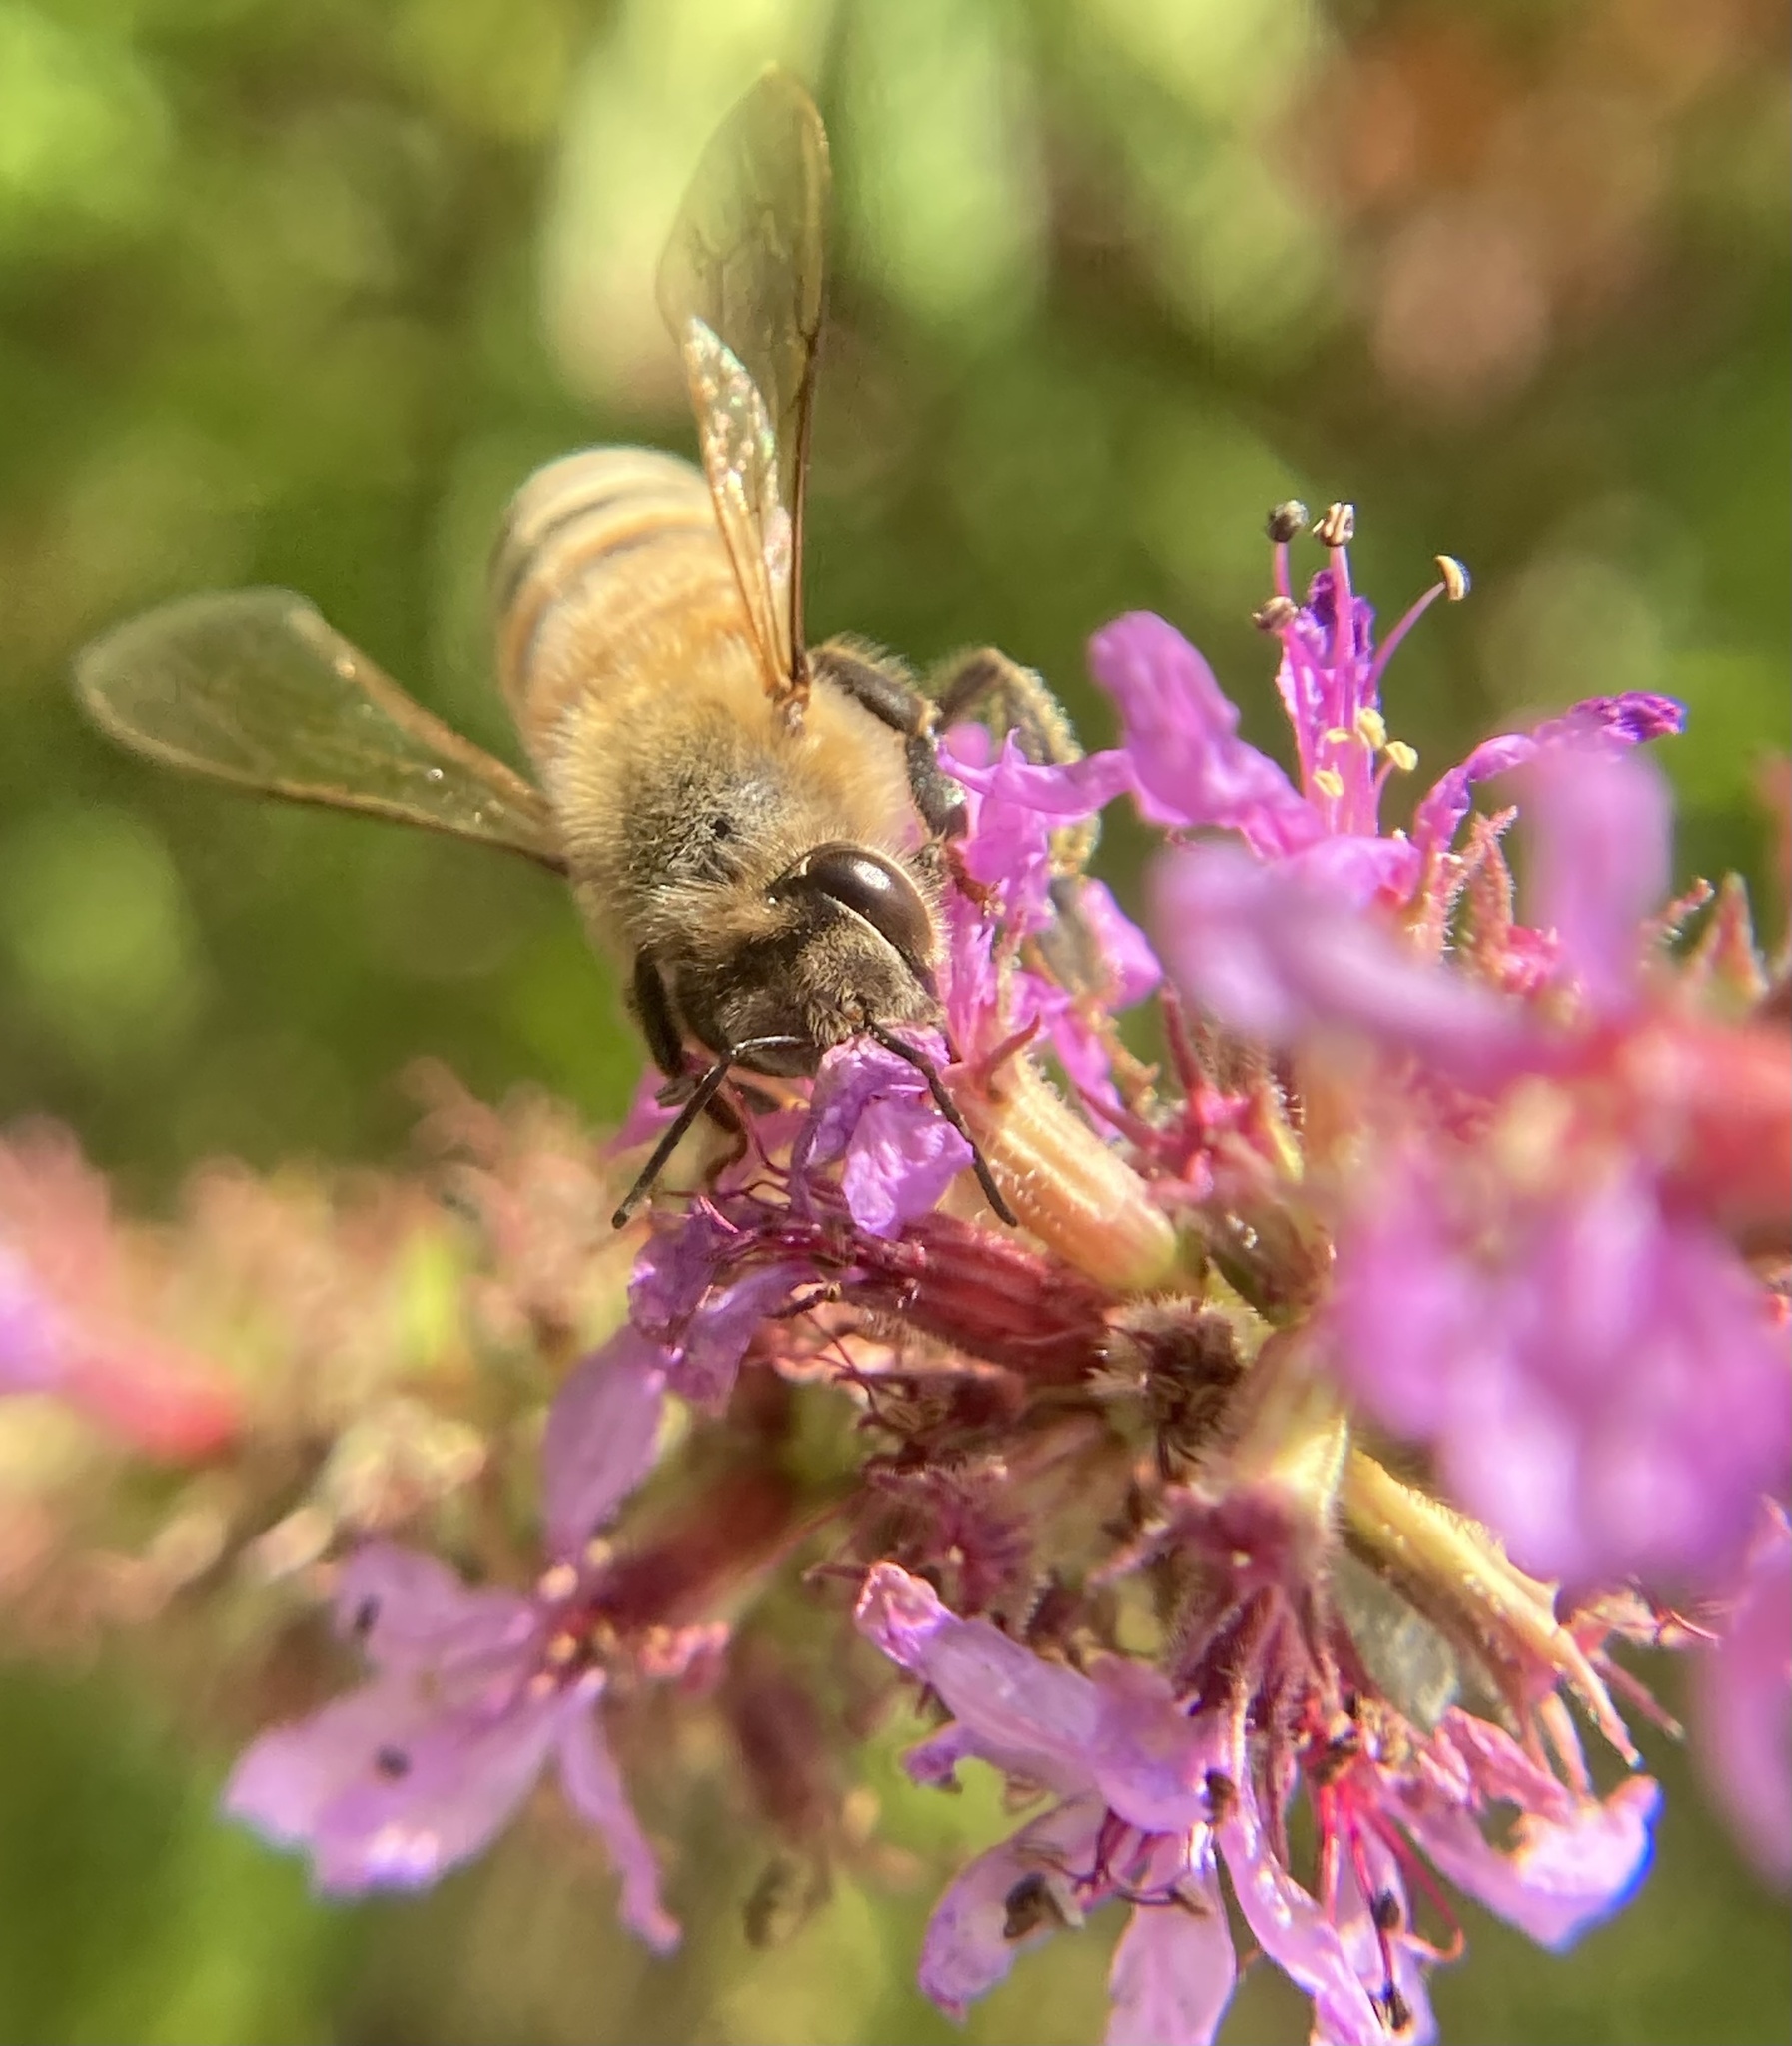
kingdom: Animalia
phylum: Arthropoda
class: Insecta
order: Hymenoptera
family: Apidae
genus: Apis
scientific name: Apis mellifera
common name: Honey bee
